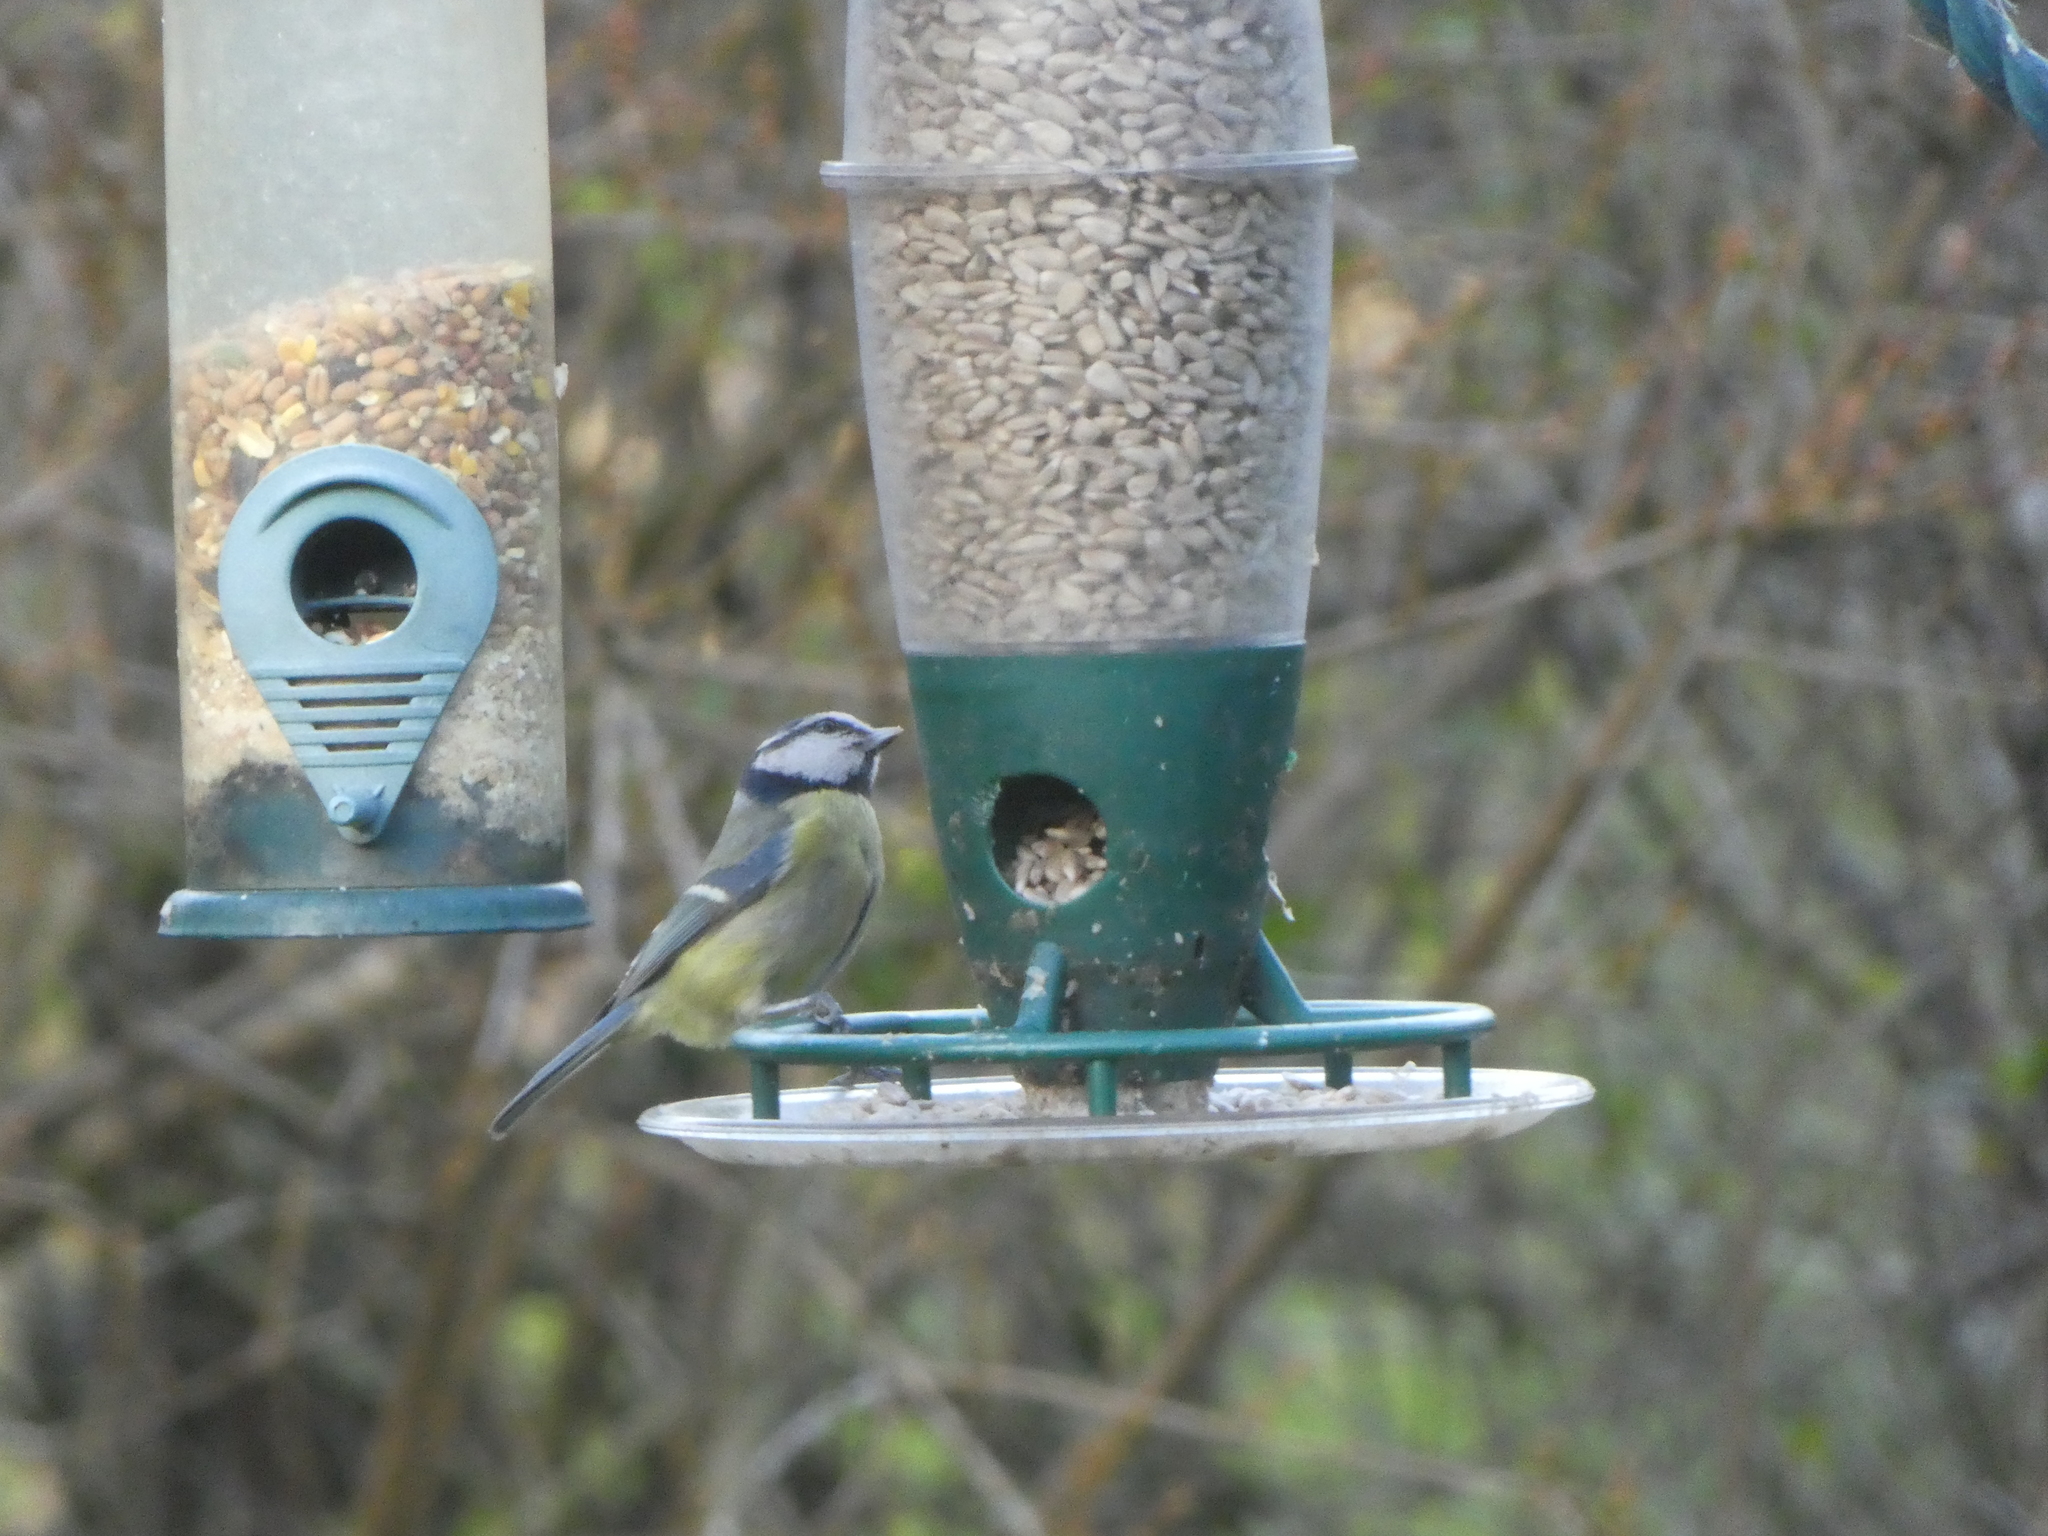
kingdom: Animalia
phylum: Chordata
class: Aves
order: Passeriformes
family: Paridae
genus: Cyanistes
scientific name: Cyanistes caeruleus
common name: Eurasian blue tit
